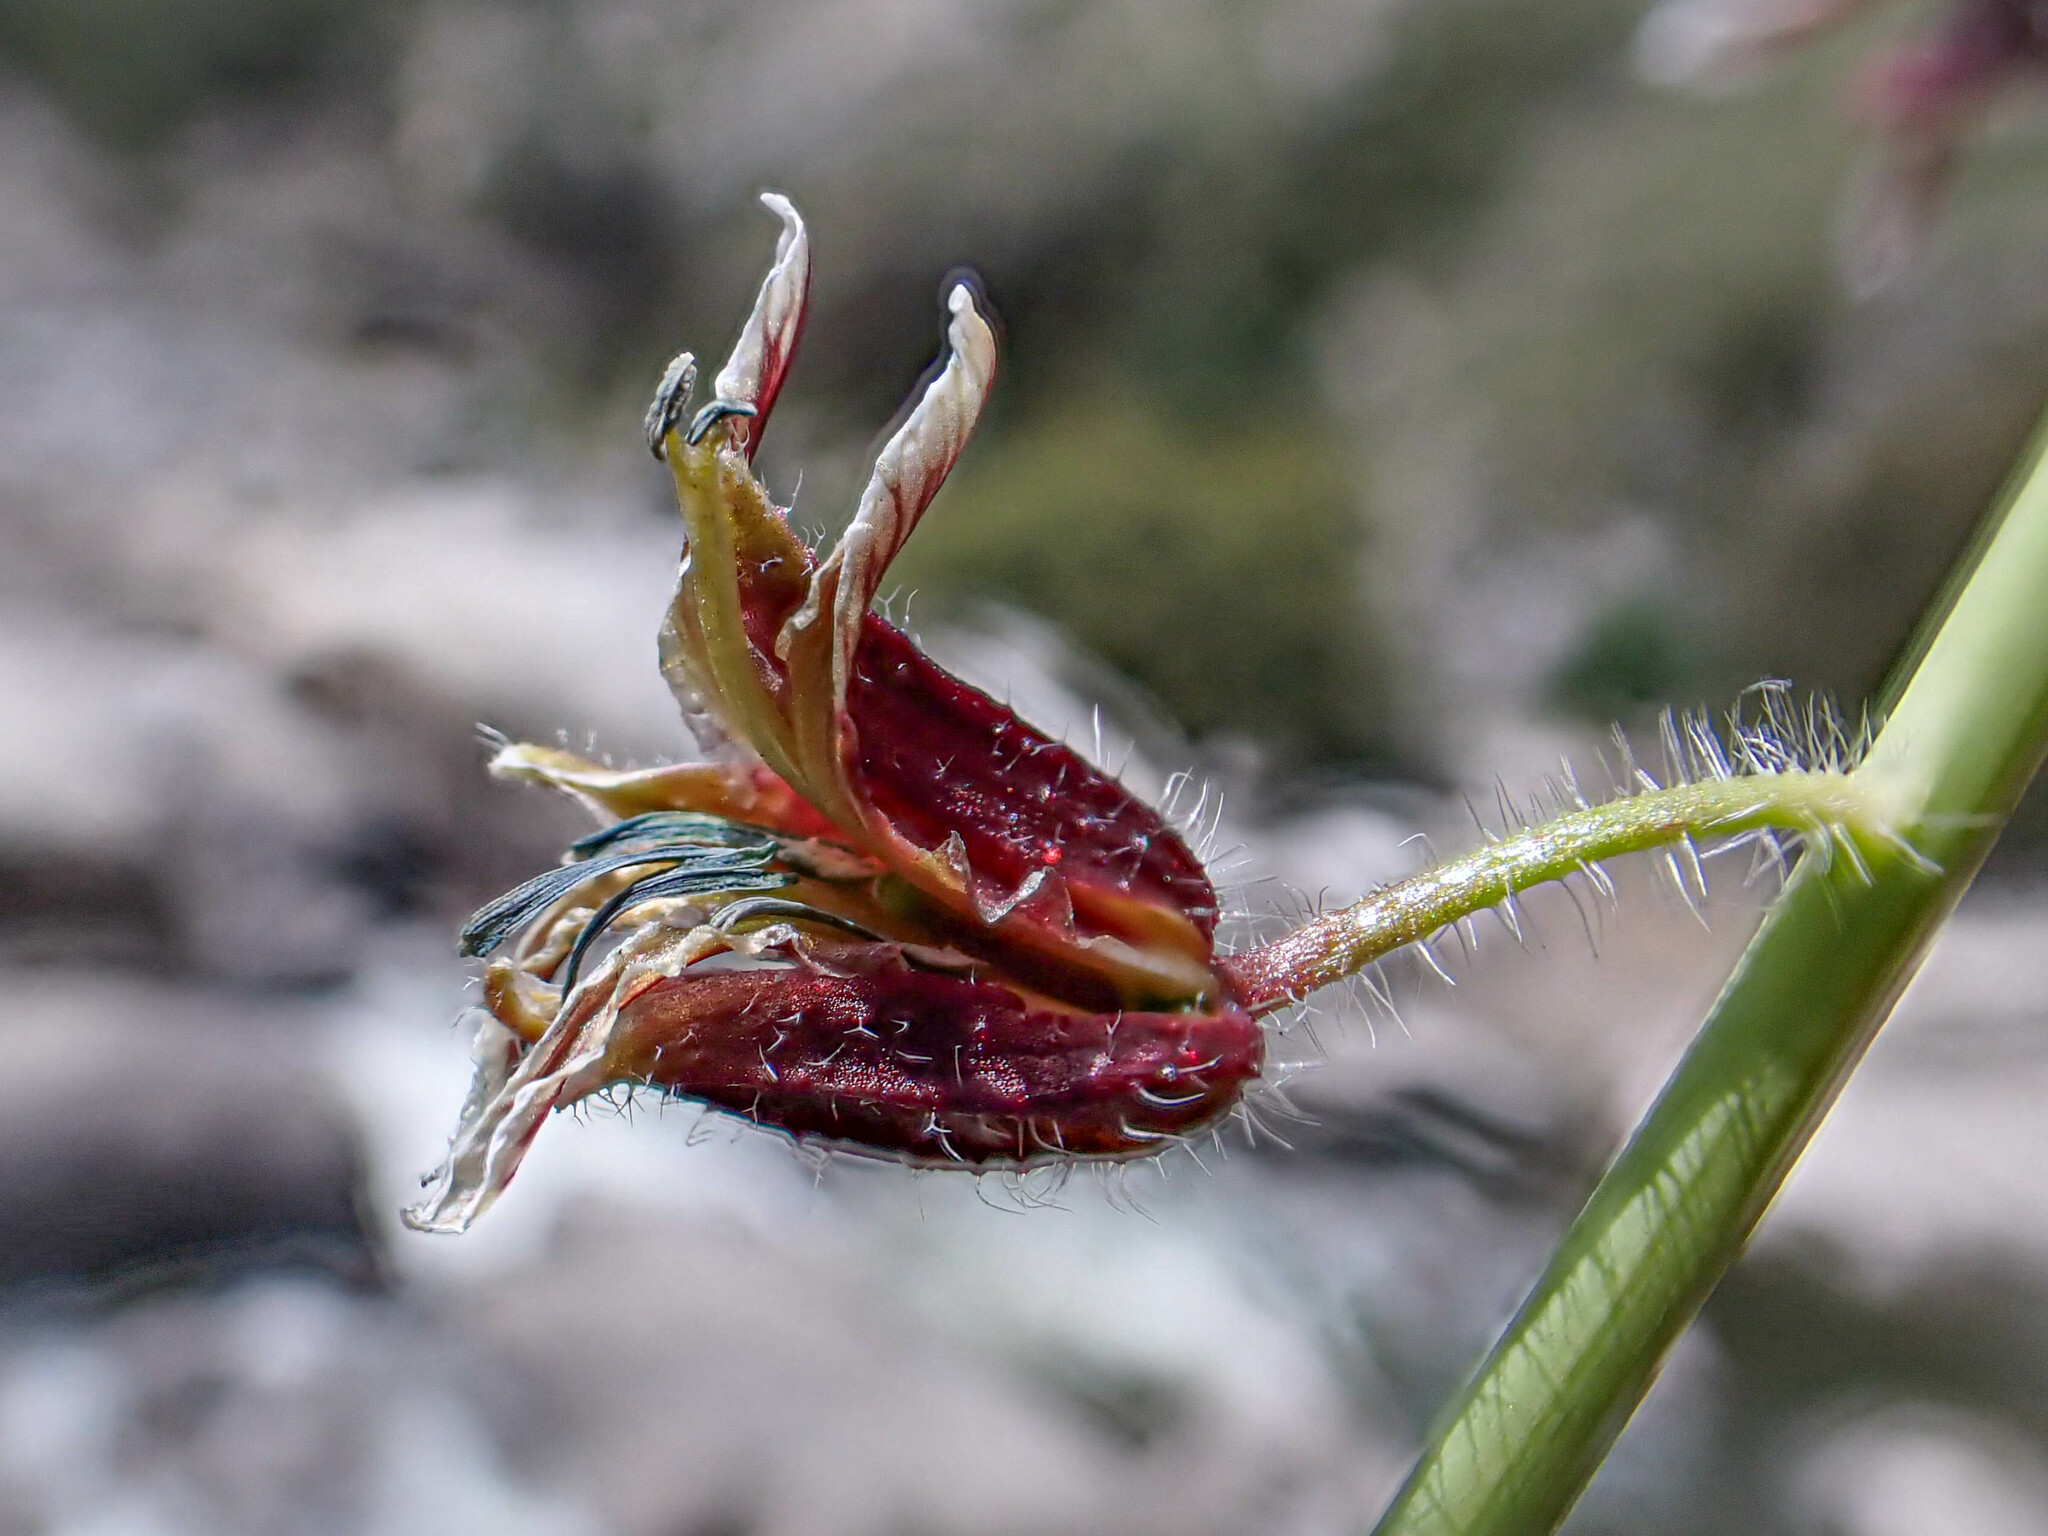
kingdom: Plantae
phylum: Tracheophyta
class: Magnoliopsida
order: Brassicales
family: Brassicaceae
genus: Streptanthus
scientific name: Streptanthus coulteri
